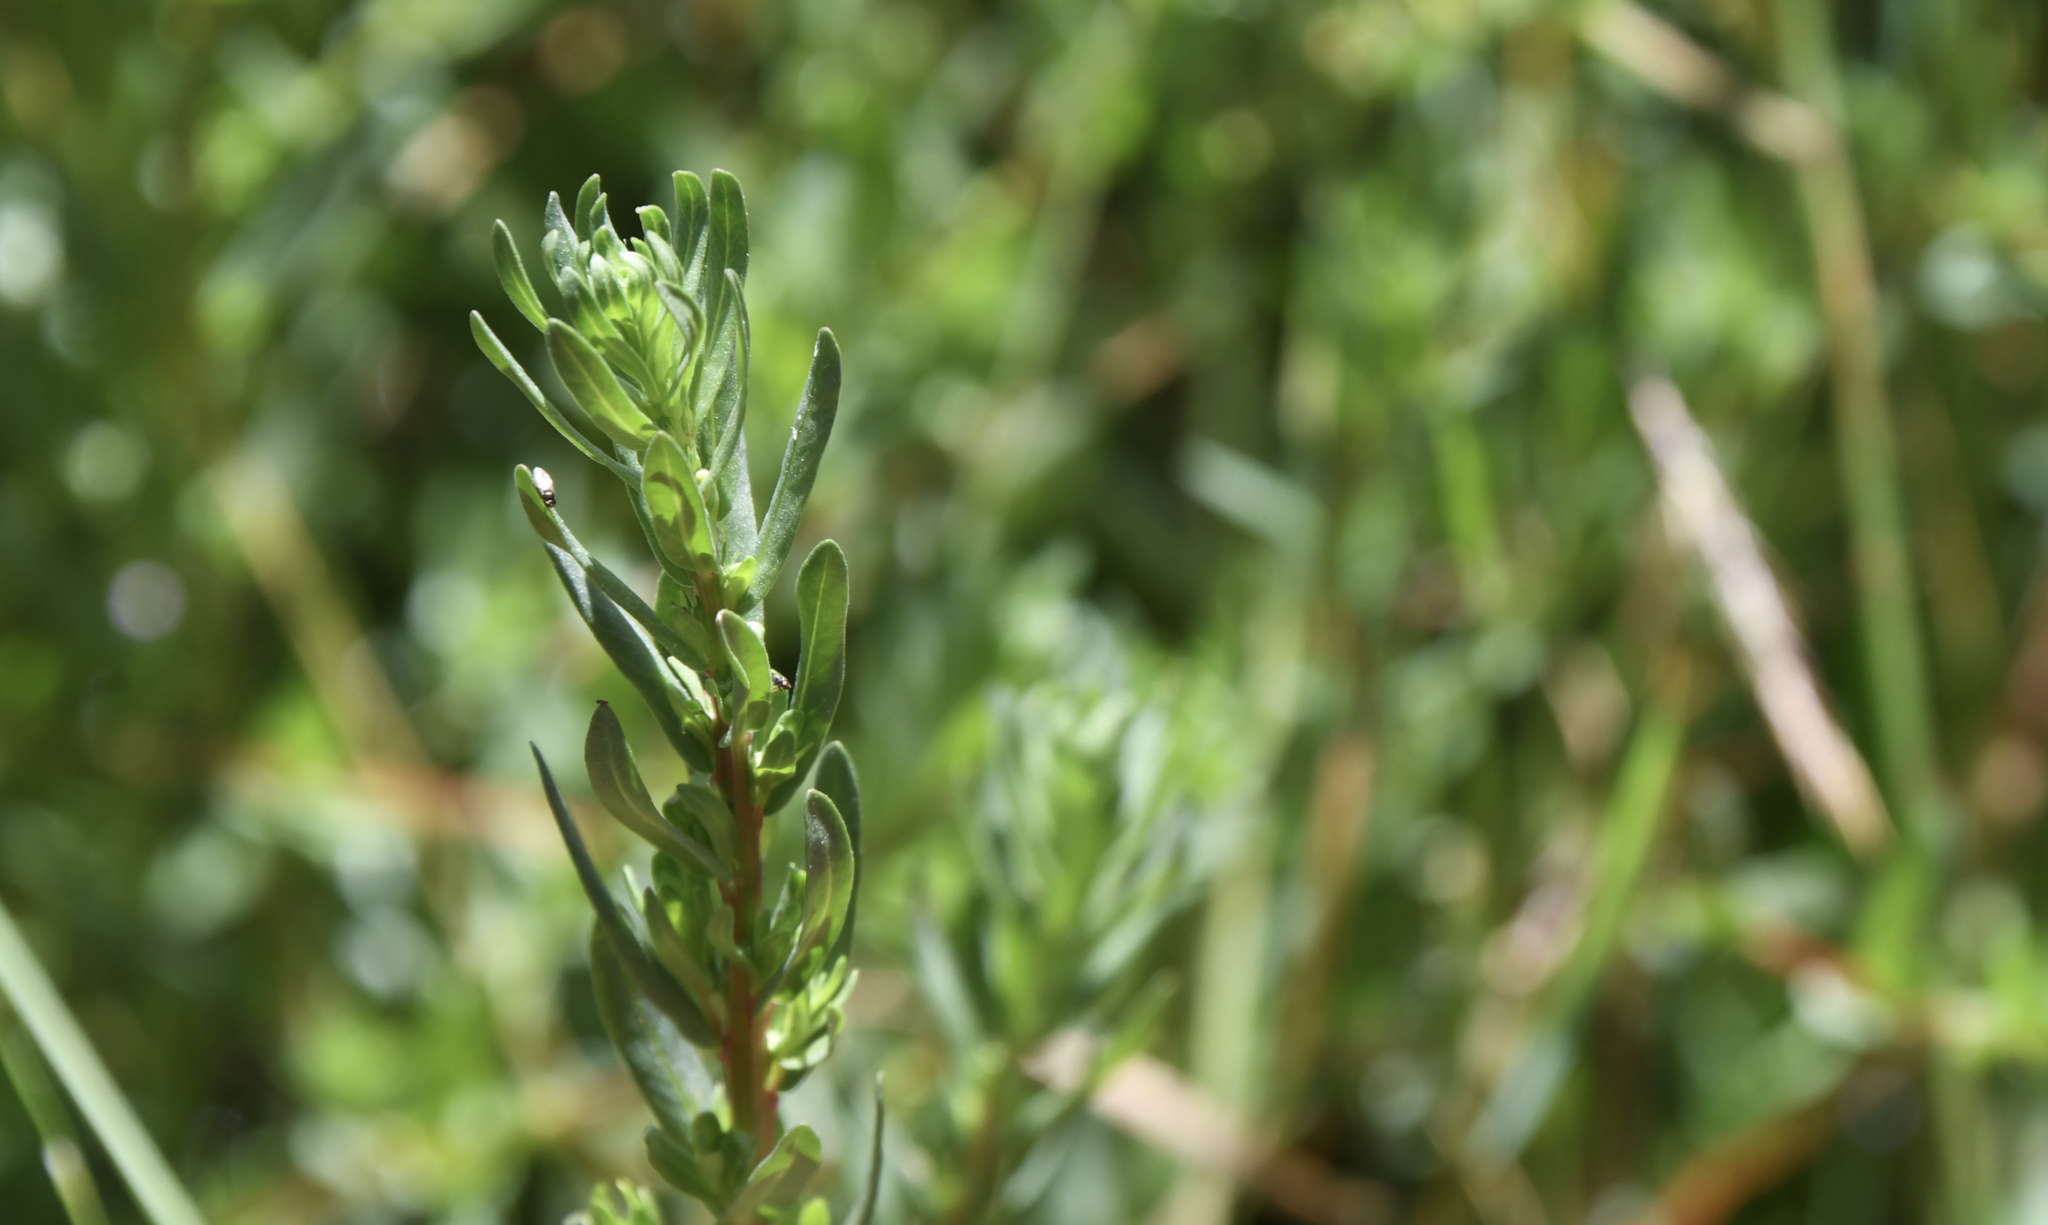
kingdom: Plantae
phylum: Tracheophyta
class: Magnoliopsida
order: Myrtales
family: Lythraceae
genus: Lythrum
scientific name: Lythrum hyssopifolia
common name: Grass-poly
